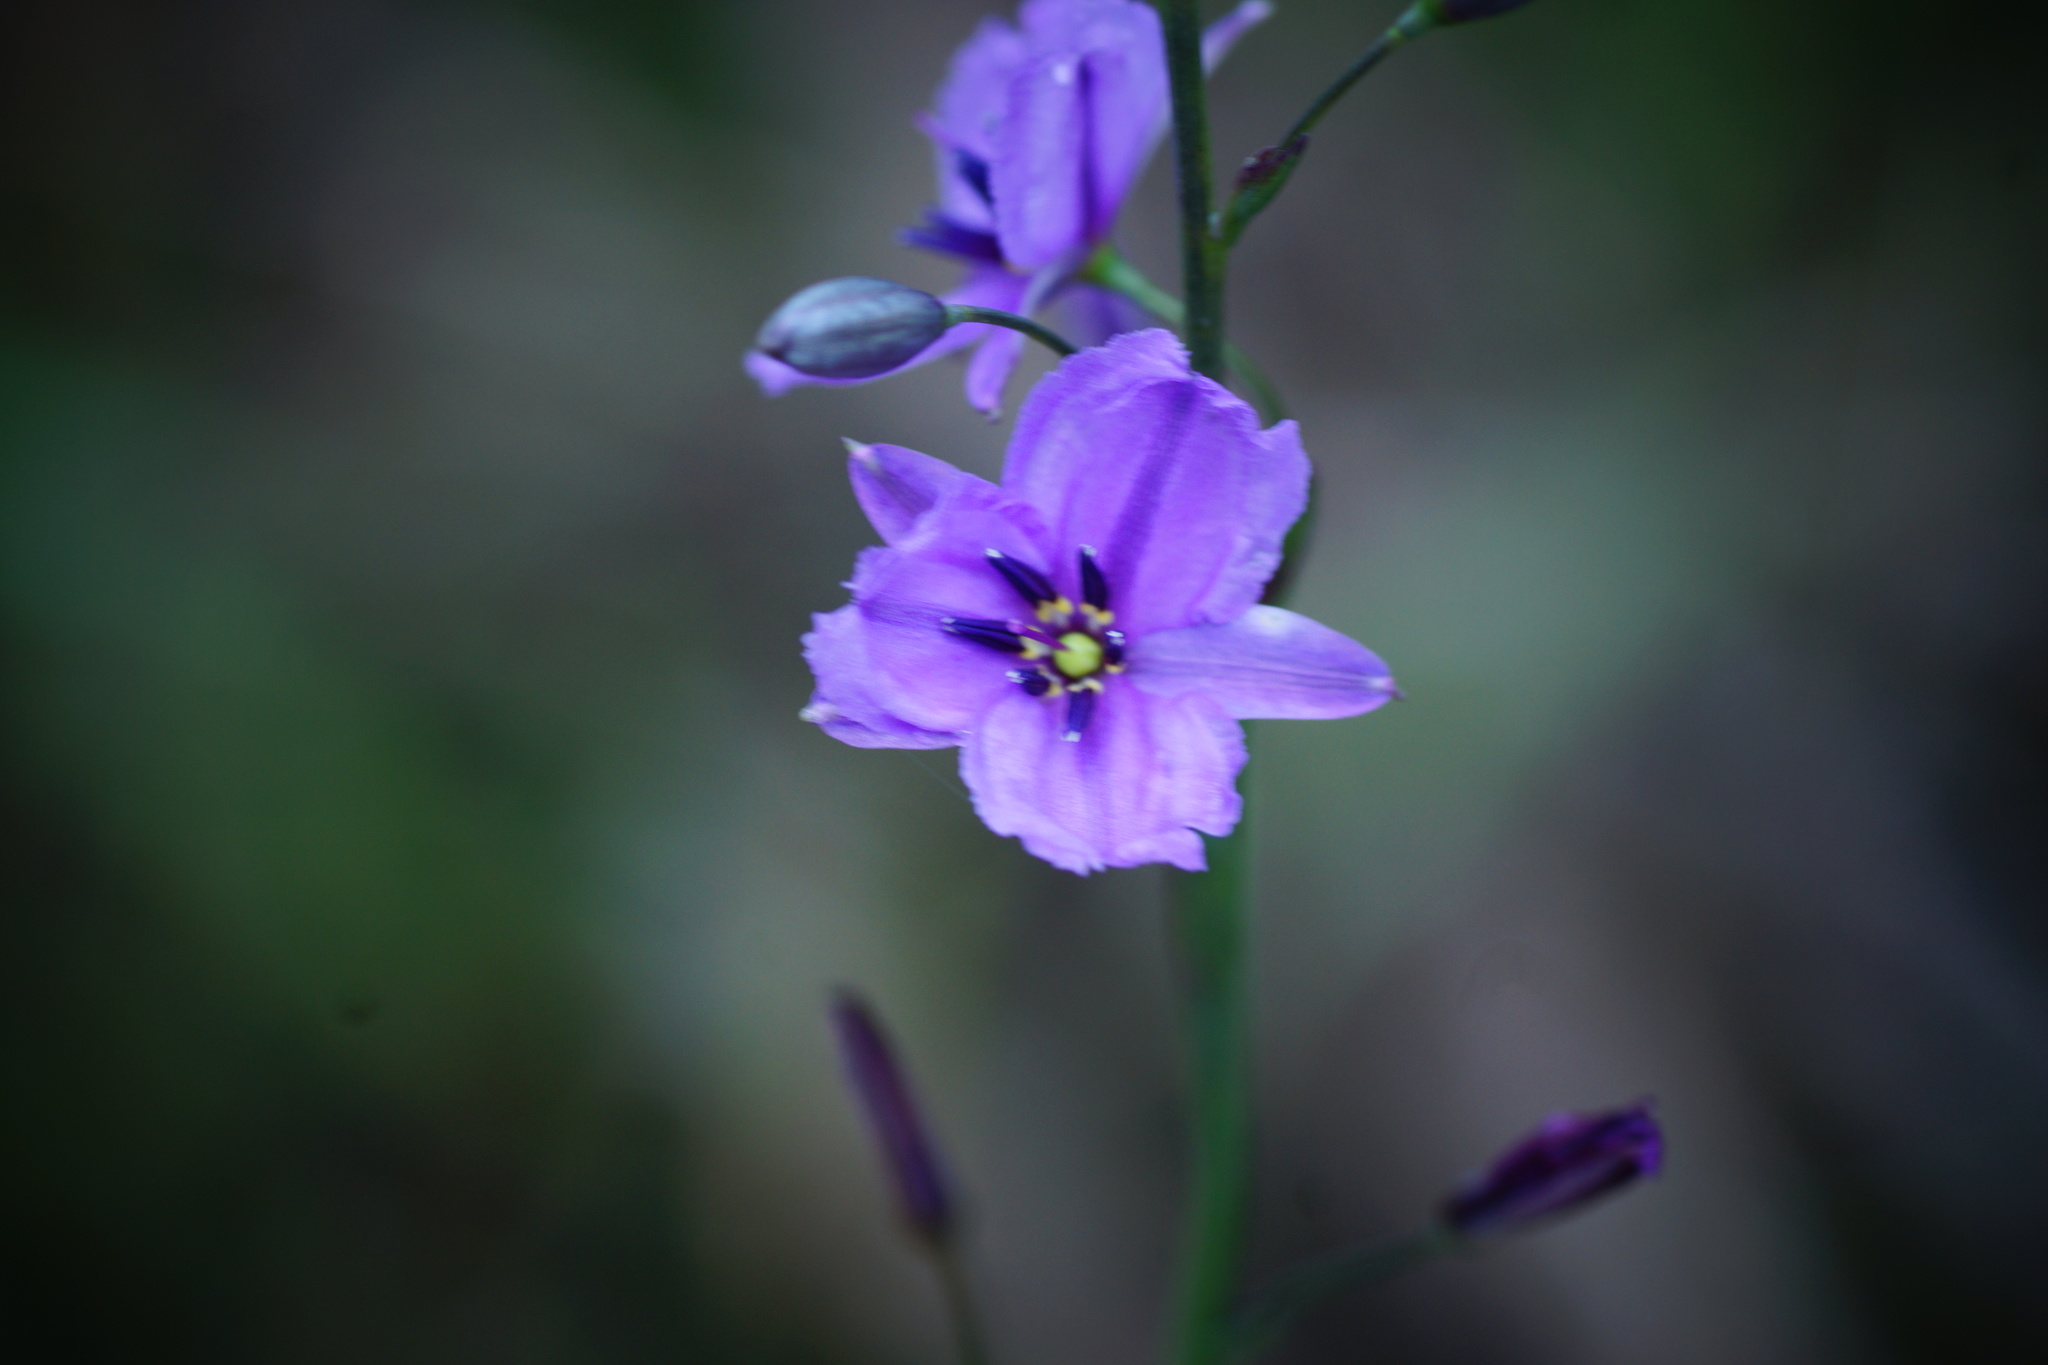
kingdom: Plantae
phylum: Tracheophyta
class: Liliopsida
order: Asparagales
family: Asparagaceae
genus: Arthropodium
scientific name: Arthropodium strictum
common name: Chocolate-lily
